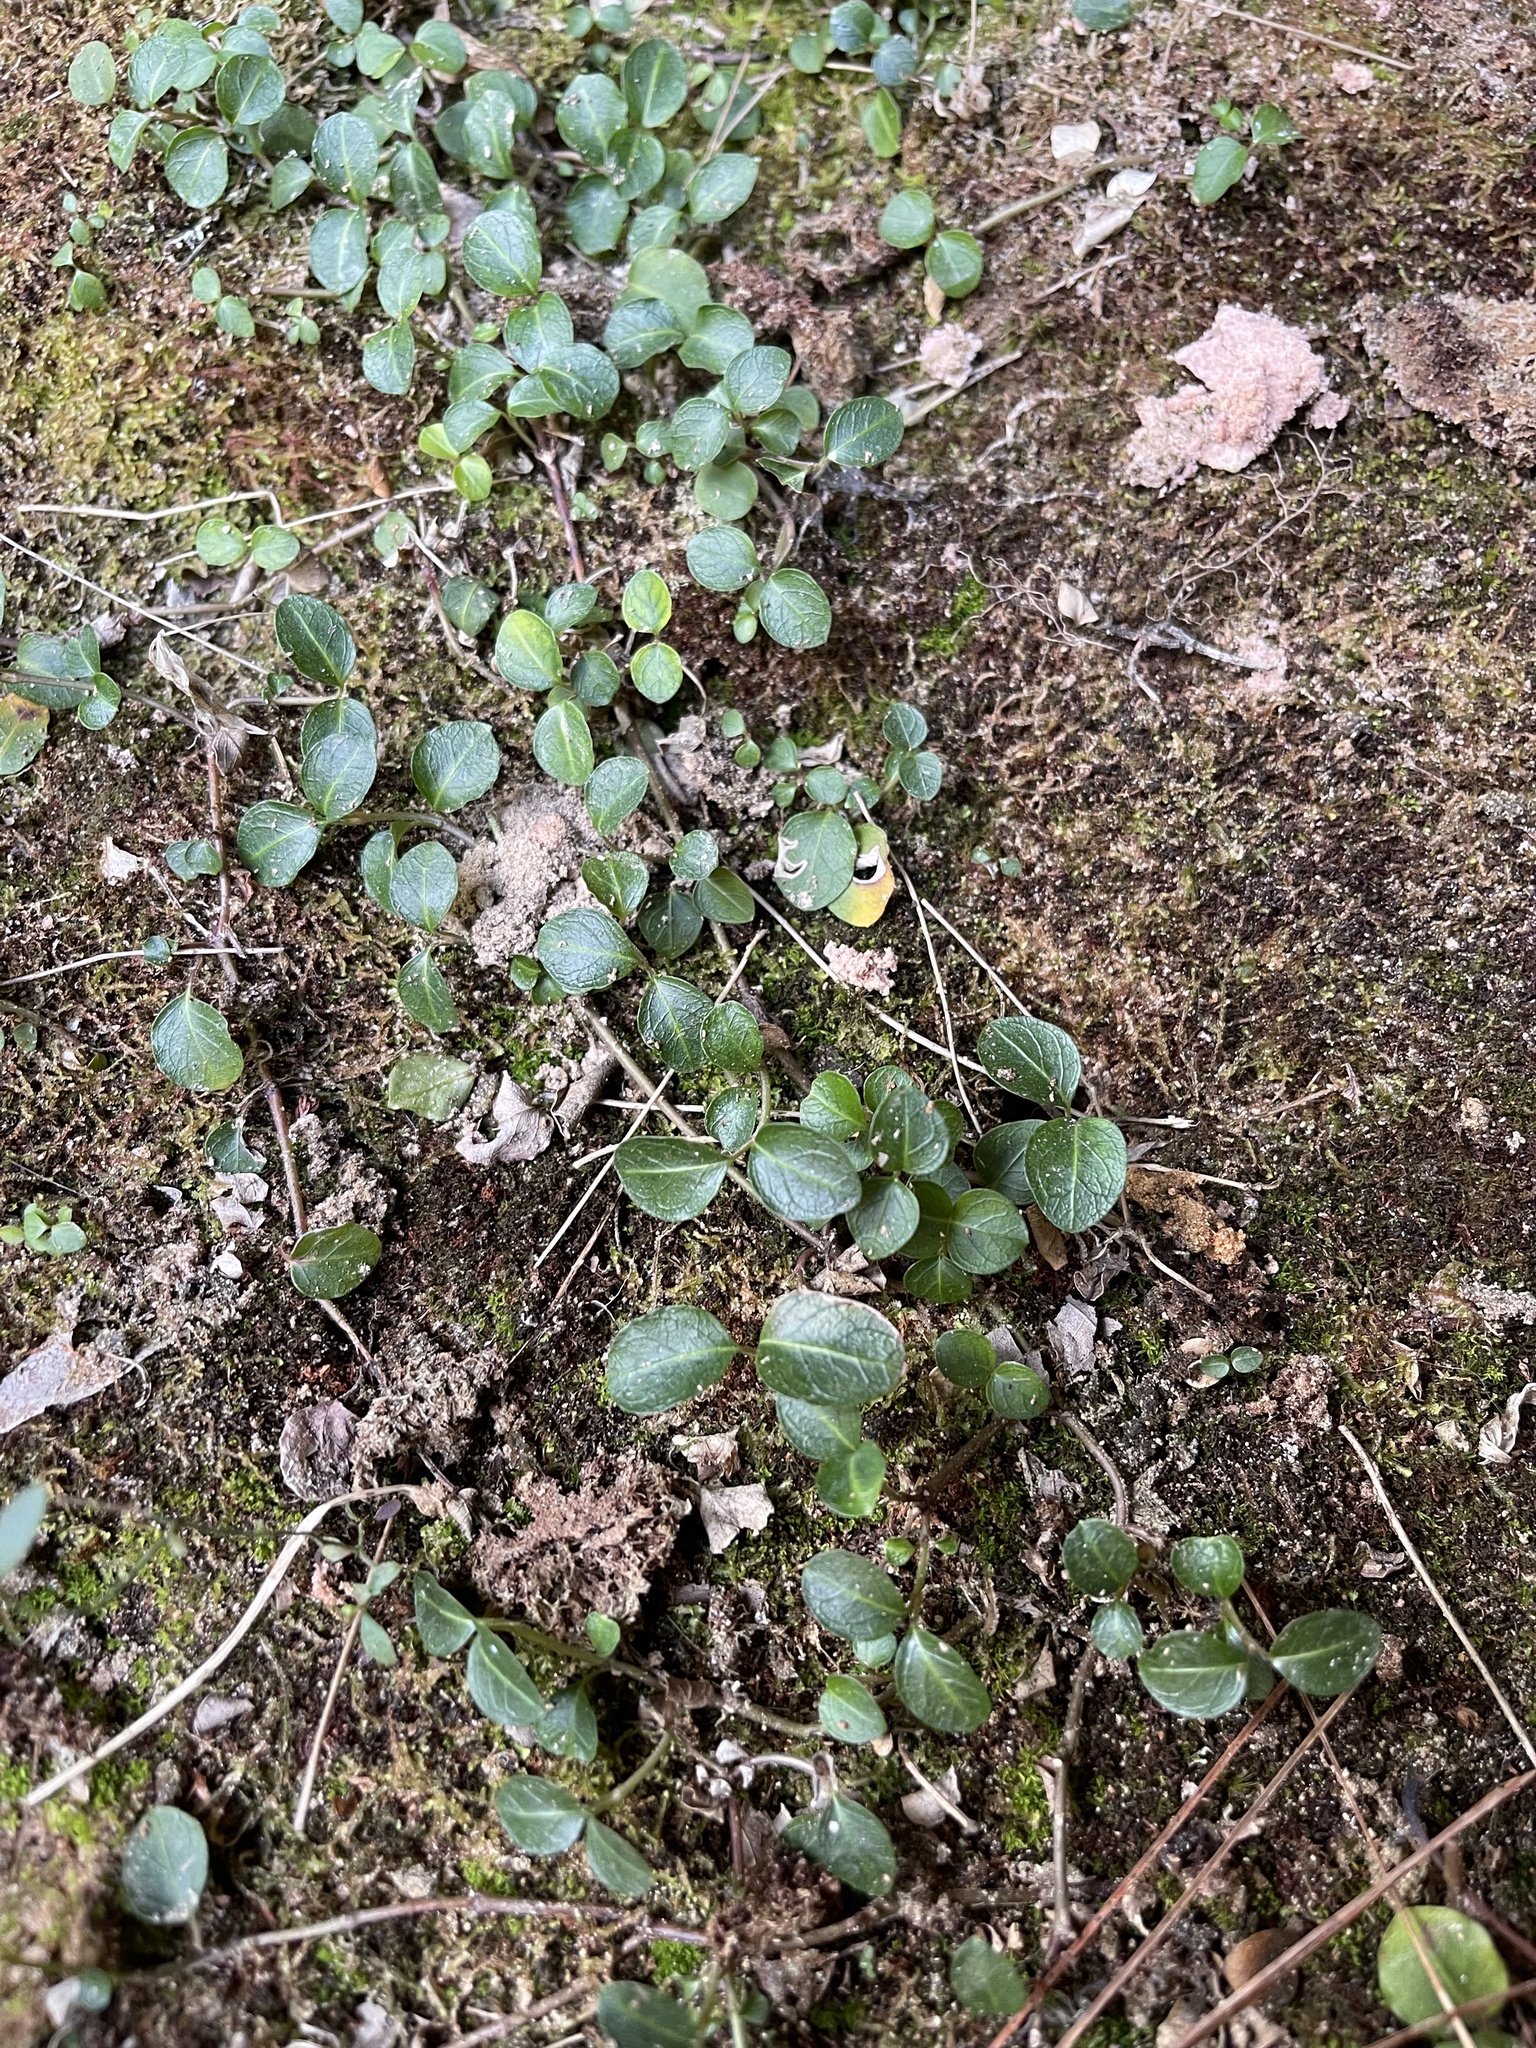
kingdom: Plantae
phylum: Tracheophyta
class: Magnoliopsida
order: Gentianales
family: Rubiaceae
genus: Mitchella
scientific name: Mitchella repens
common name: Partridge-berry
